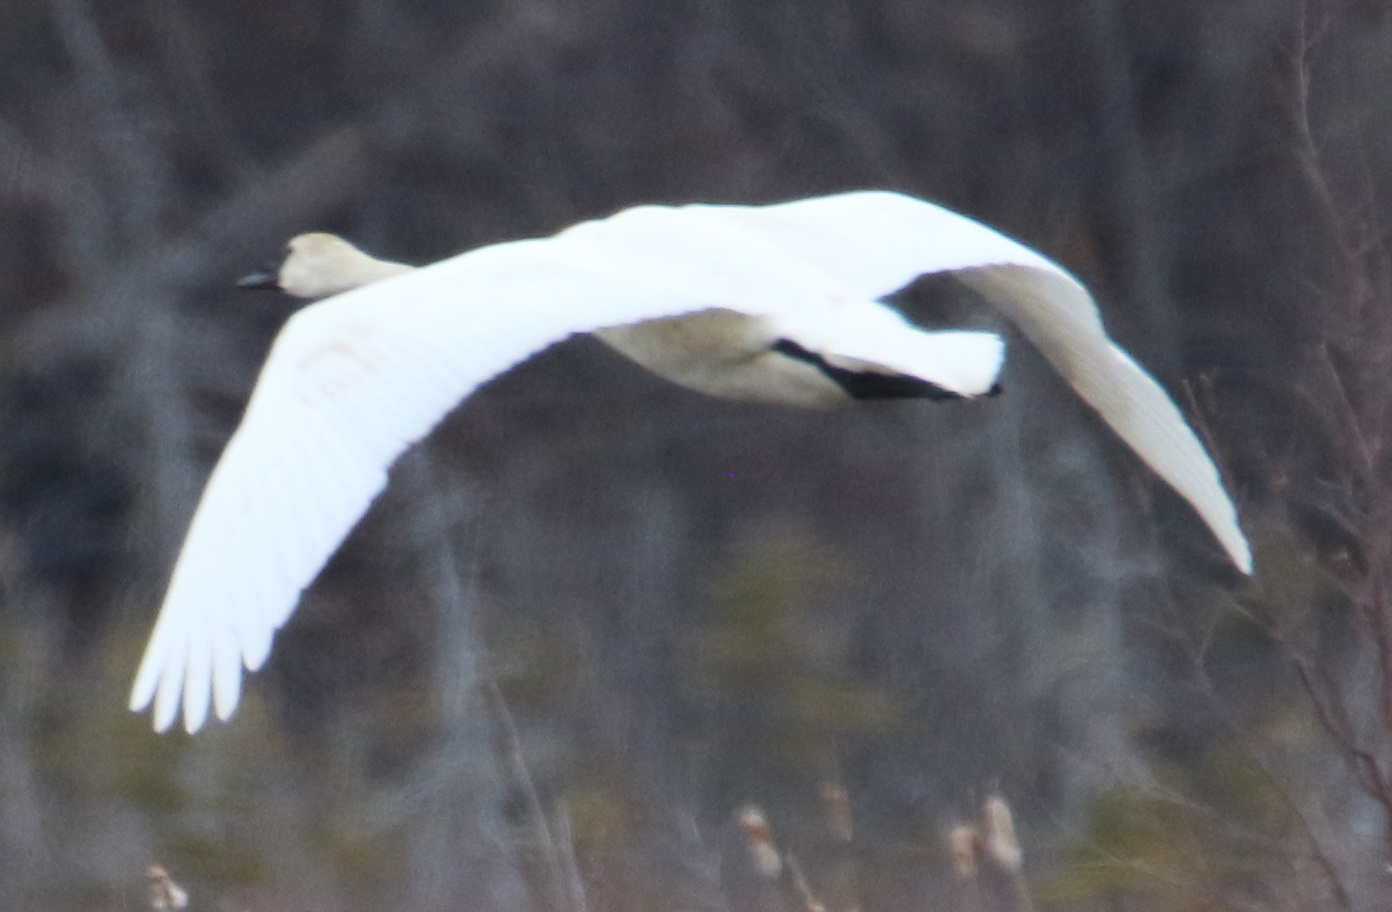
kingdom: Animalia
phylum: Chordata
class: Aves
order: Anseriformes
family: Anatidae
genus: Cygnus
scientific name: Cygnus buccinator
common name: Trumpeter swan
